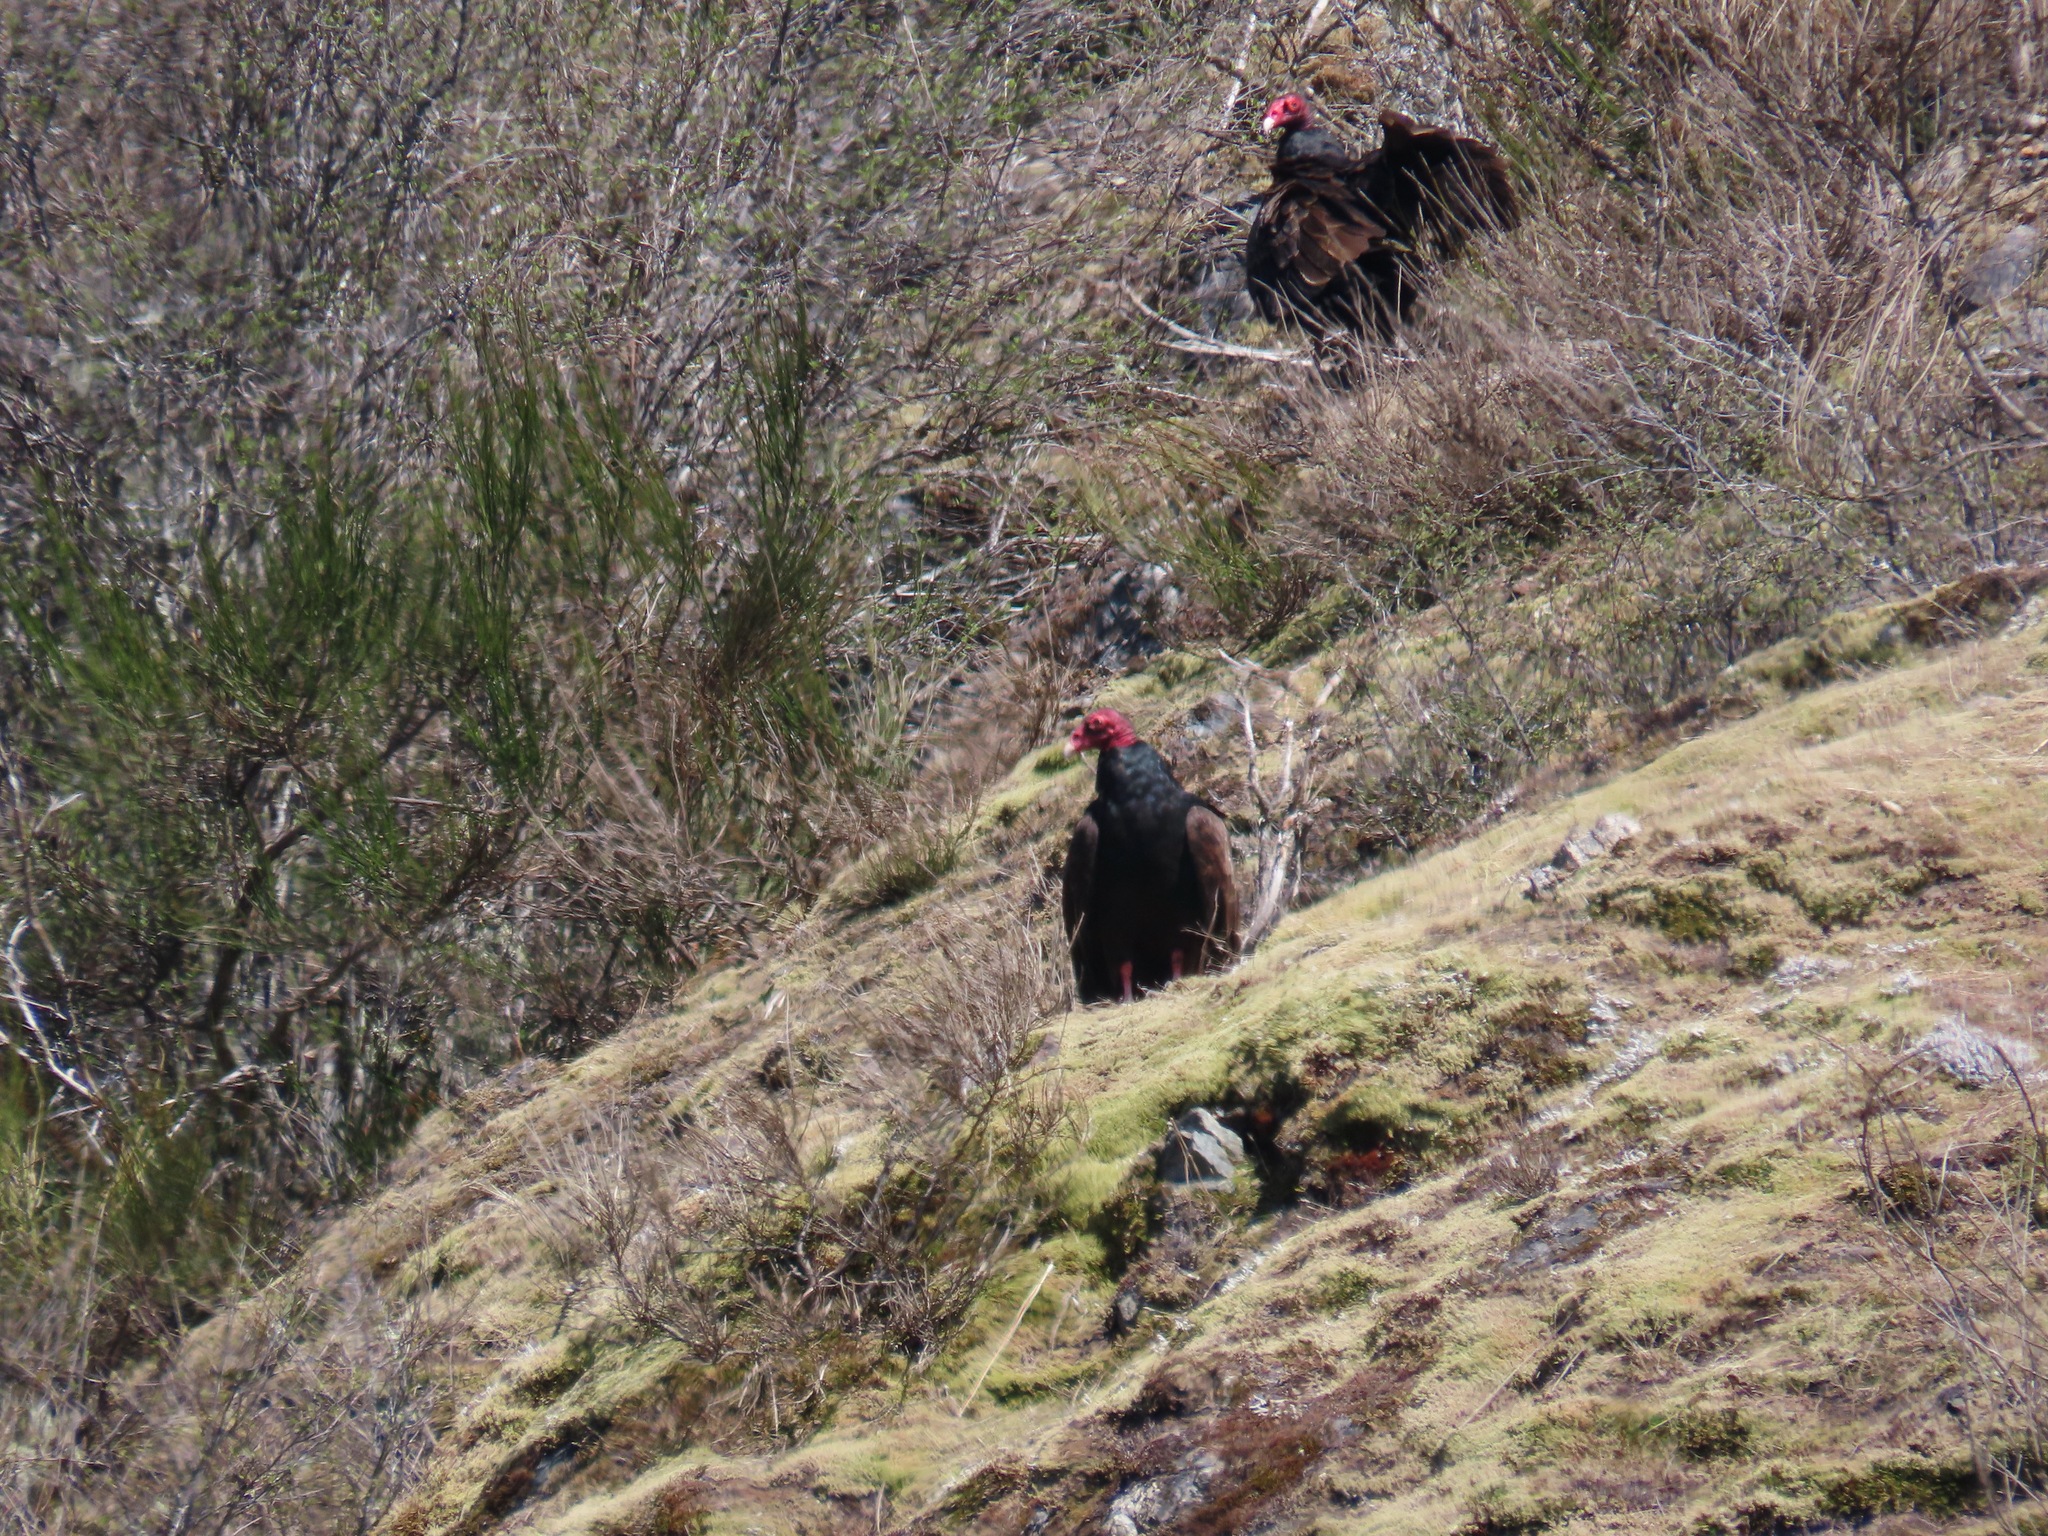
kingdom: Animalia
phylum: Chordata
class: Aves
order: Accipitriformes
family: Cathartidae
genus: Cathartes
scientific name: Cathartes aura
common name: Turkey vulture
